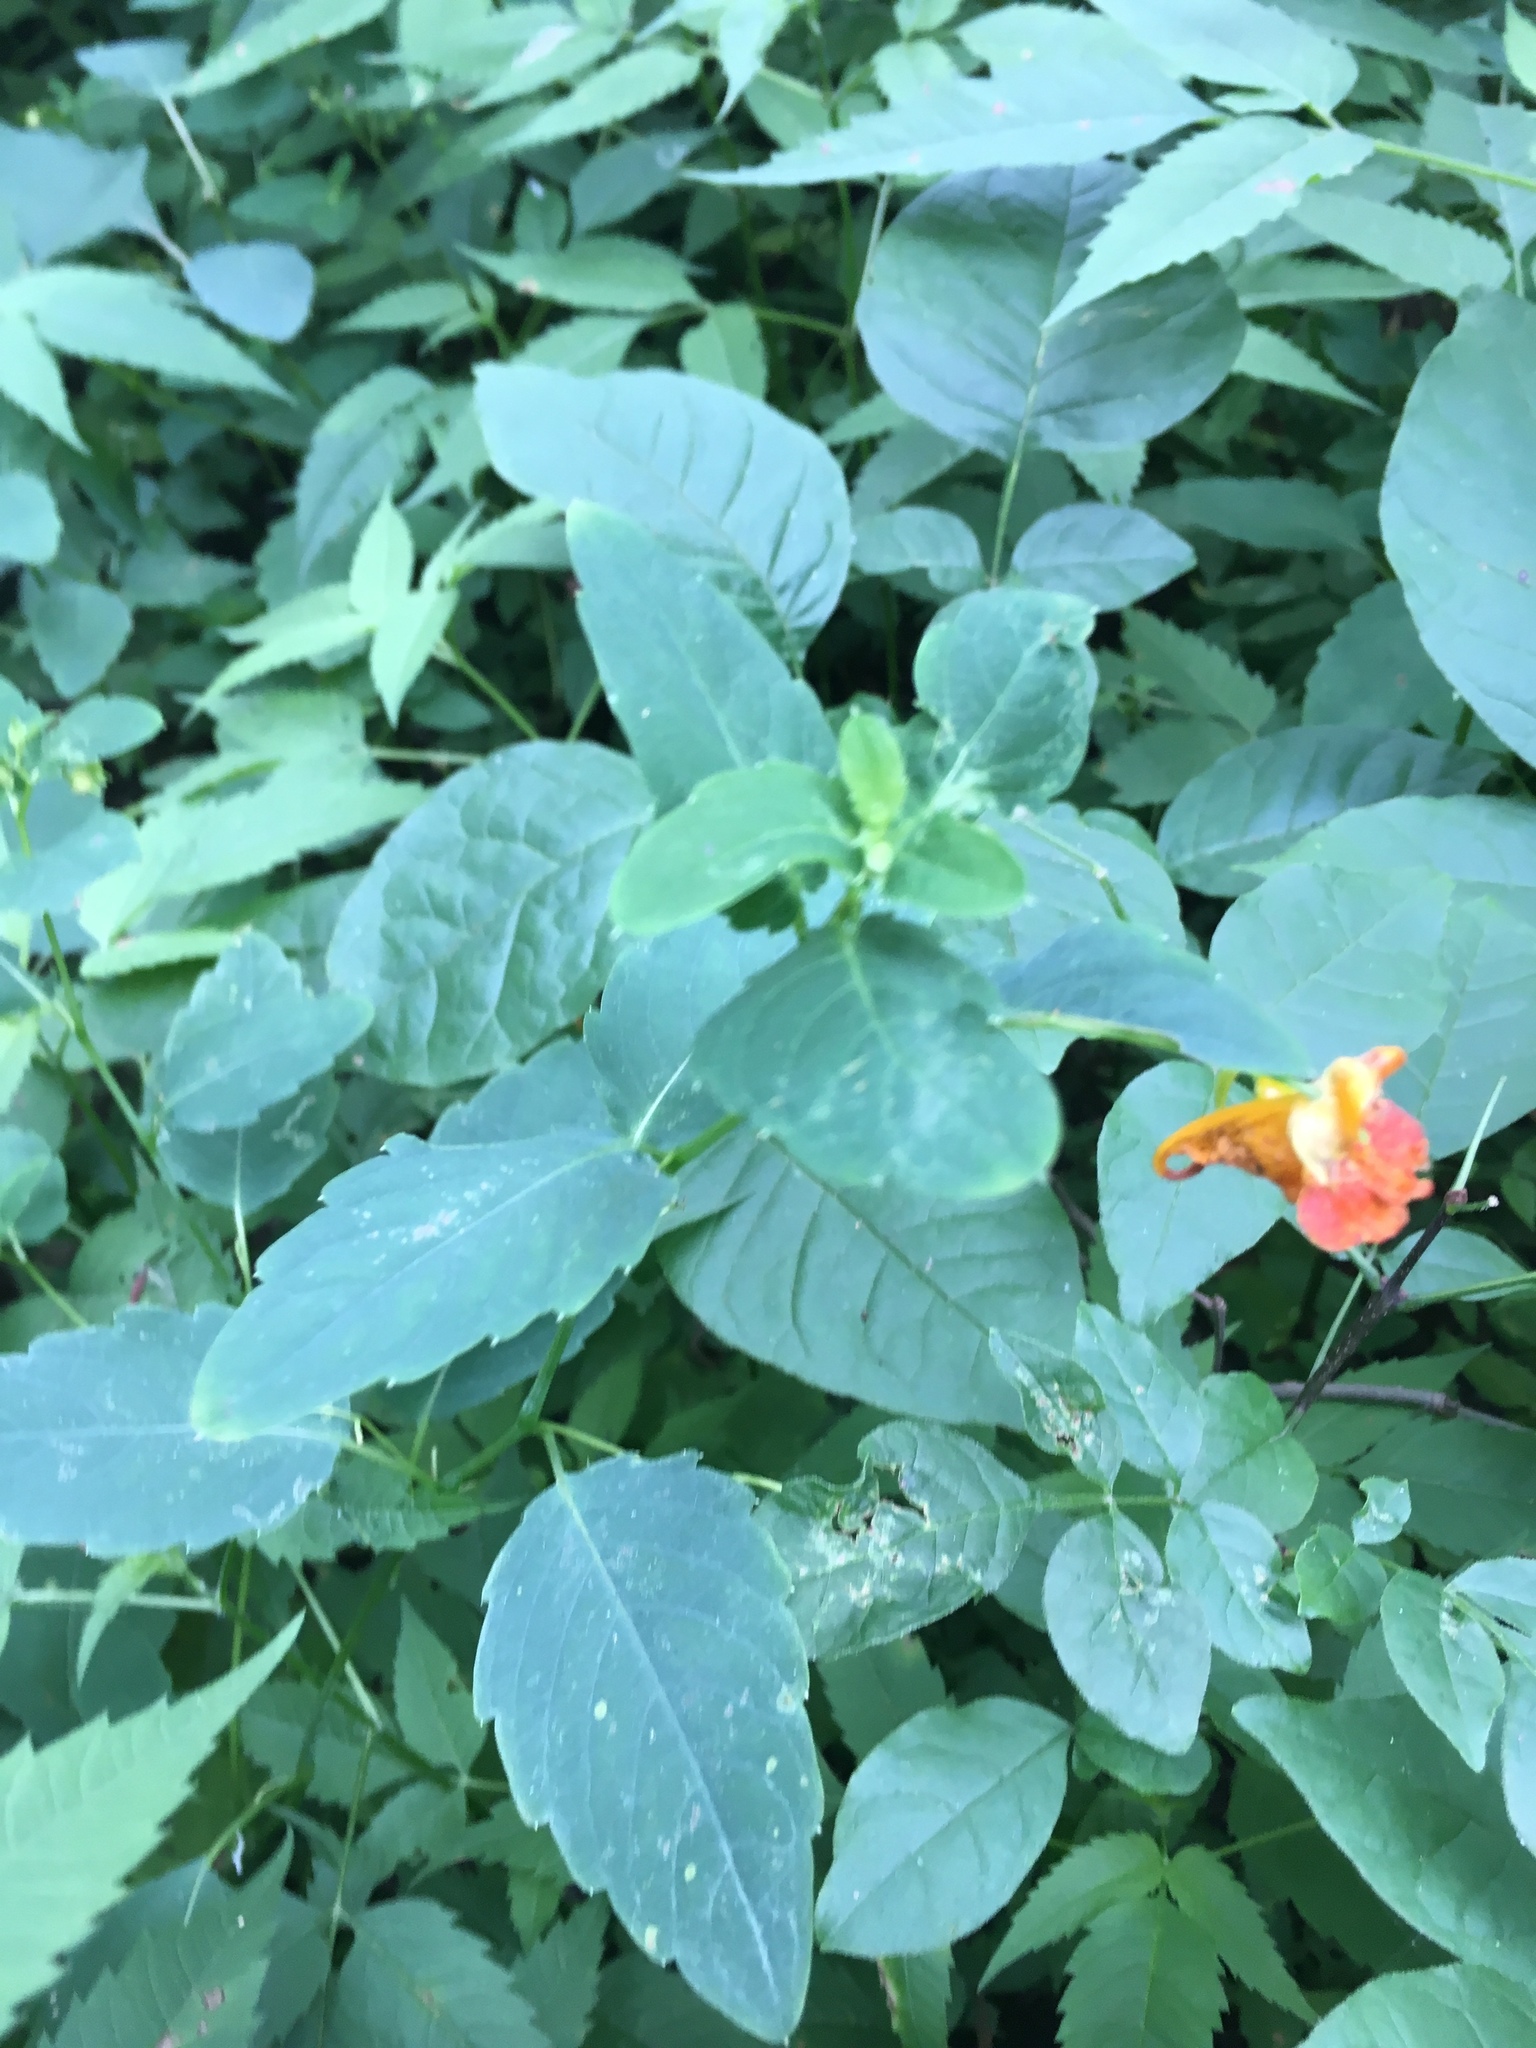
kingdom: Plantae
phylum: Tracheophyta
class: Magnoliopsida
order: Ericales
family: Balsaminaceae
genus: Impatiens
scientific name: Impatiens capensis
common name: Orange balsam
